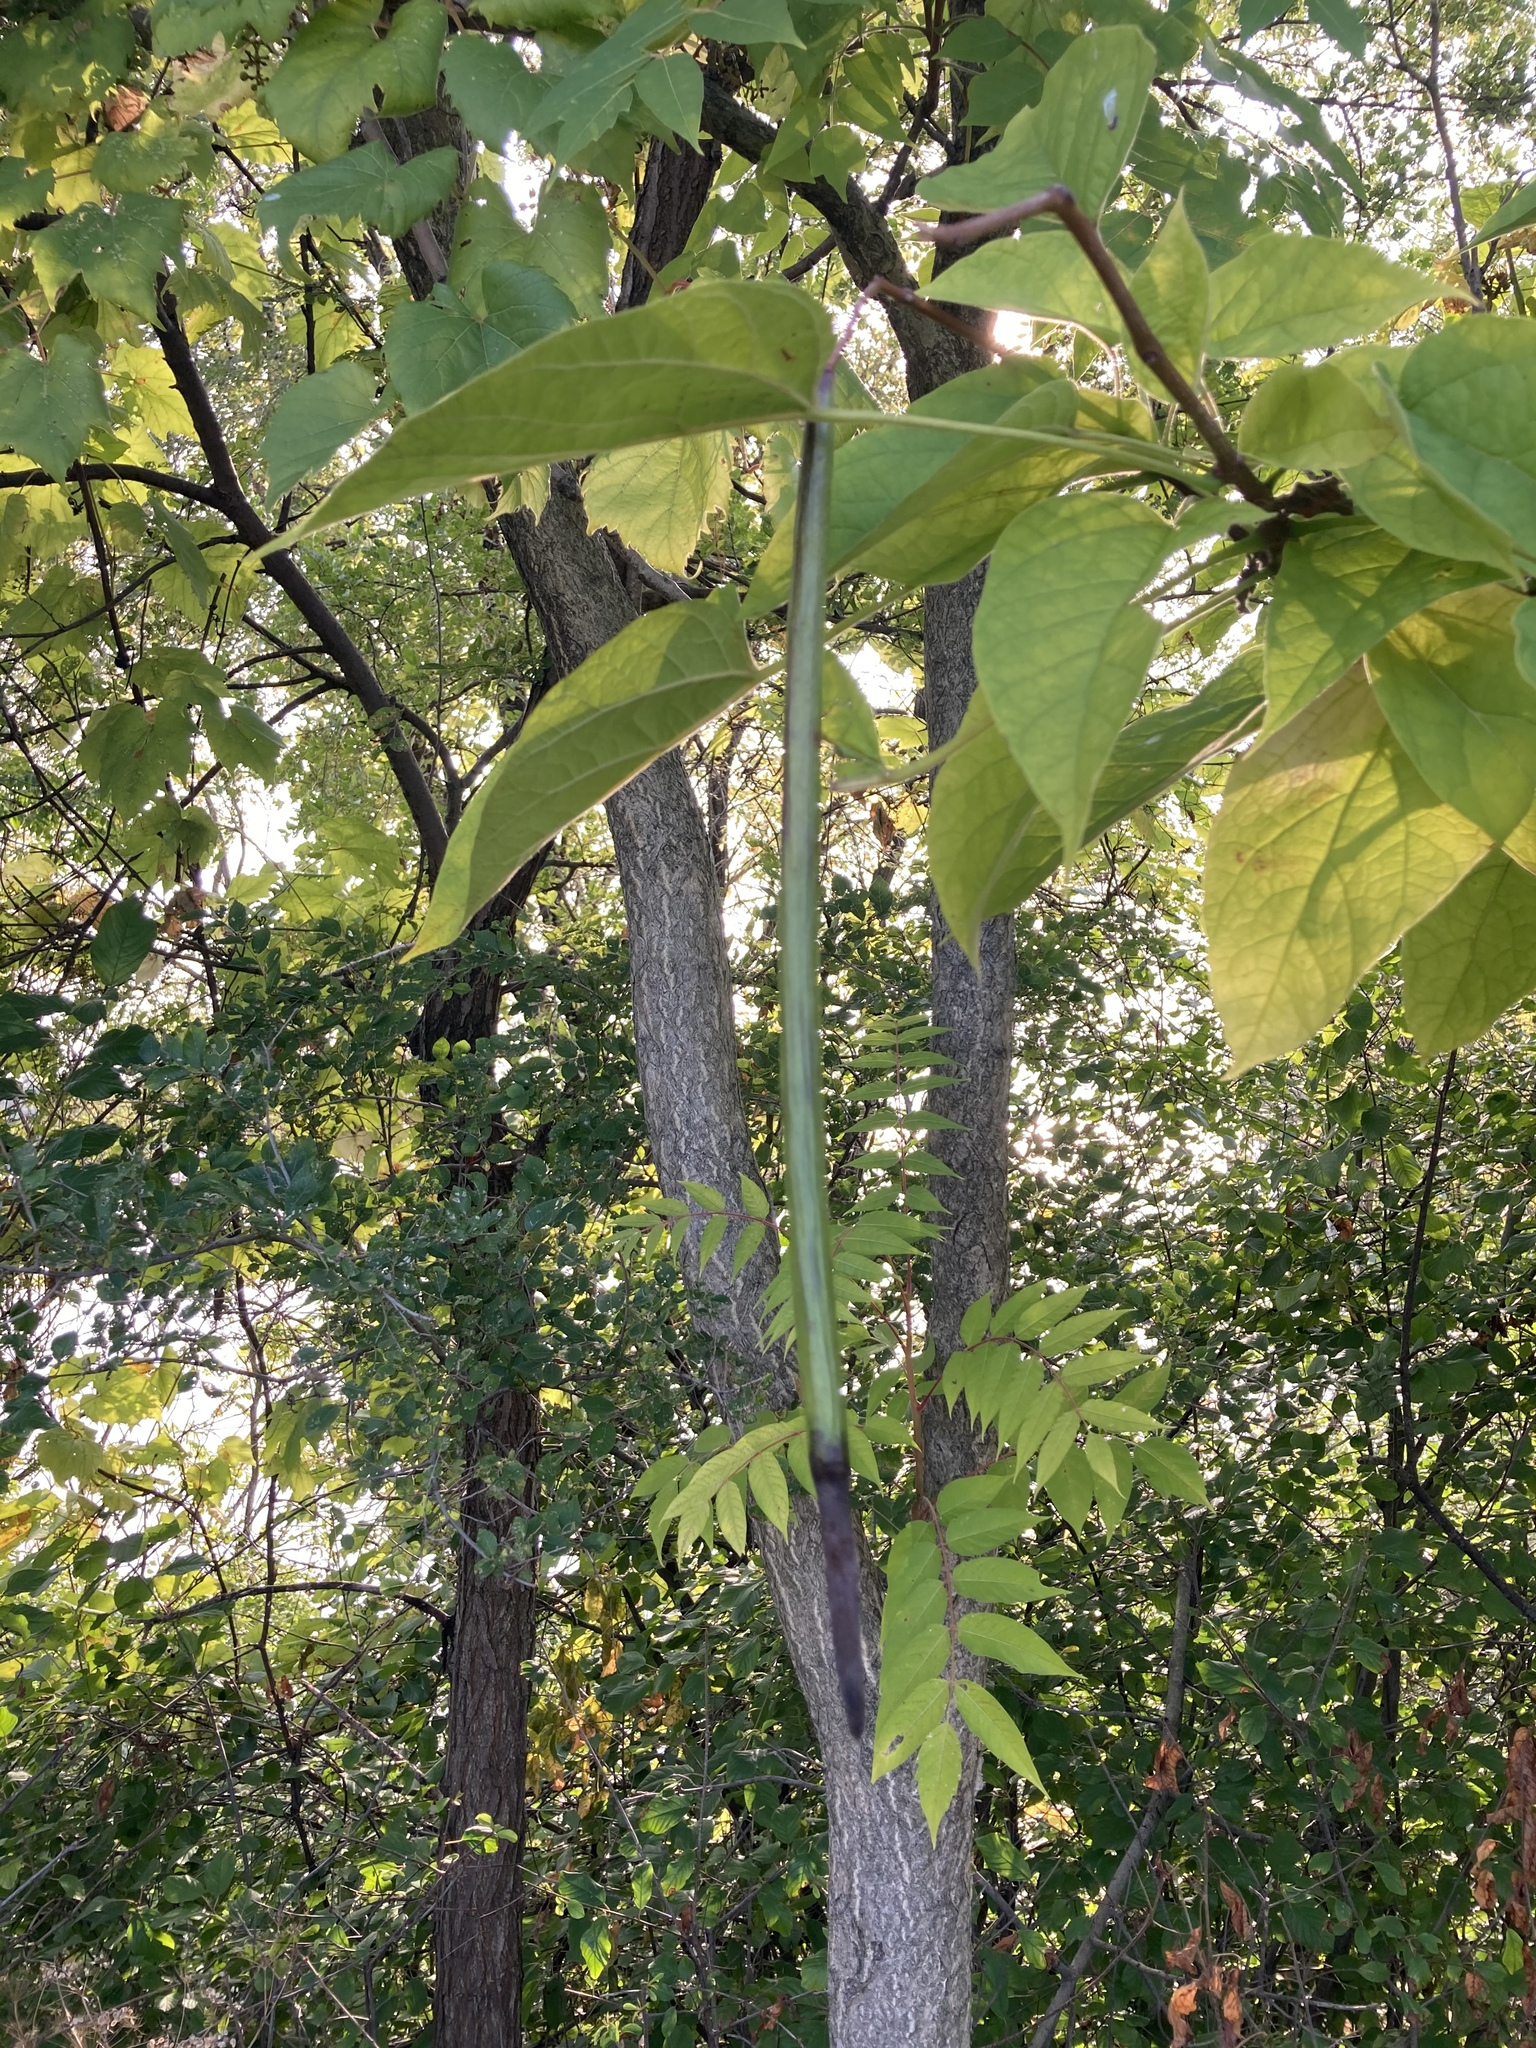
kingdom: Plantae
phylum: Tracheophyta
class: Magnoliopsida
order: Lamiales
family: Bignoniaceae
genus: Catalpa
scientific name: Catalpa speciosa
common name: Northern catalpa
